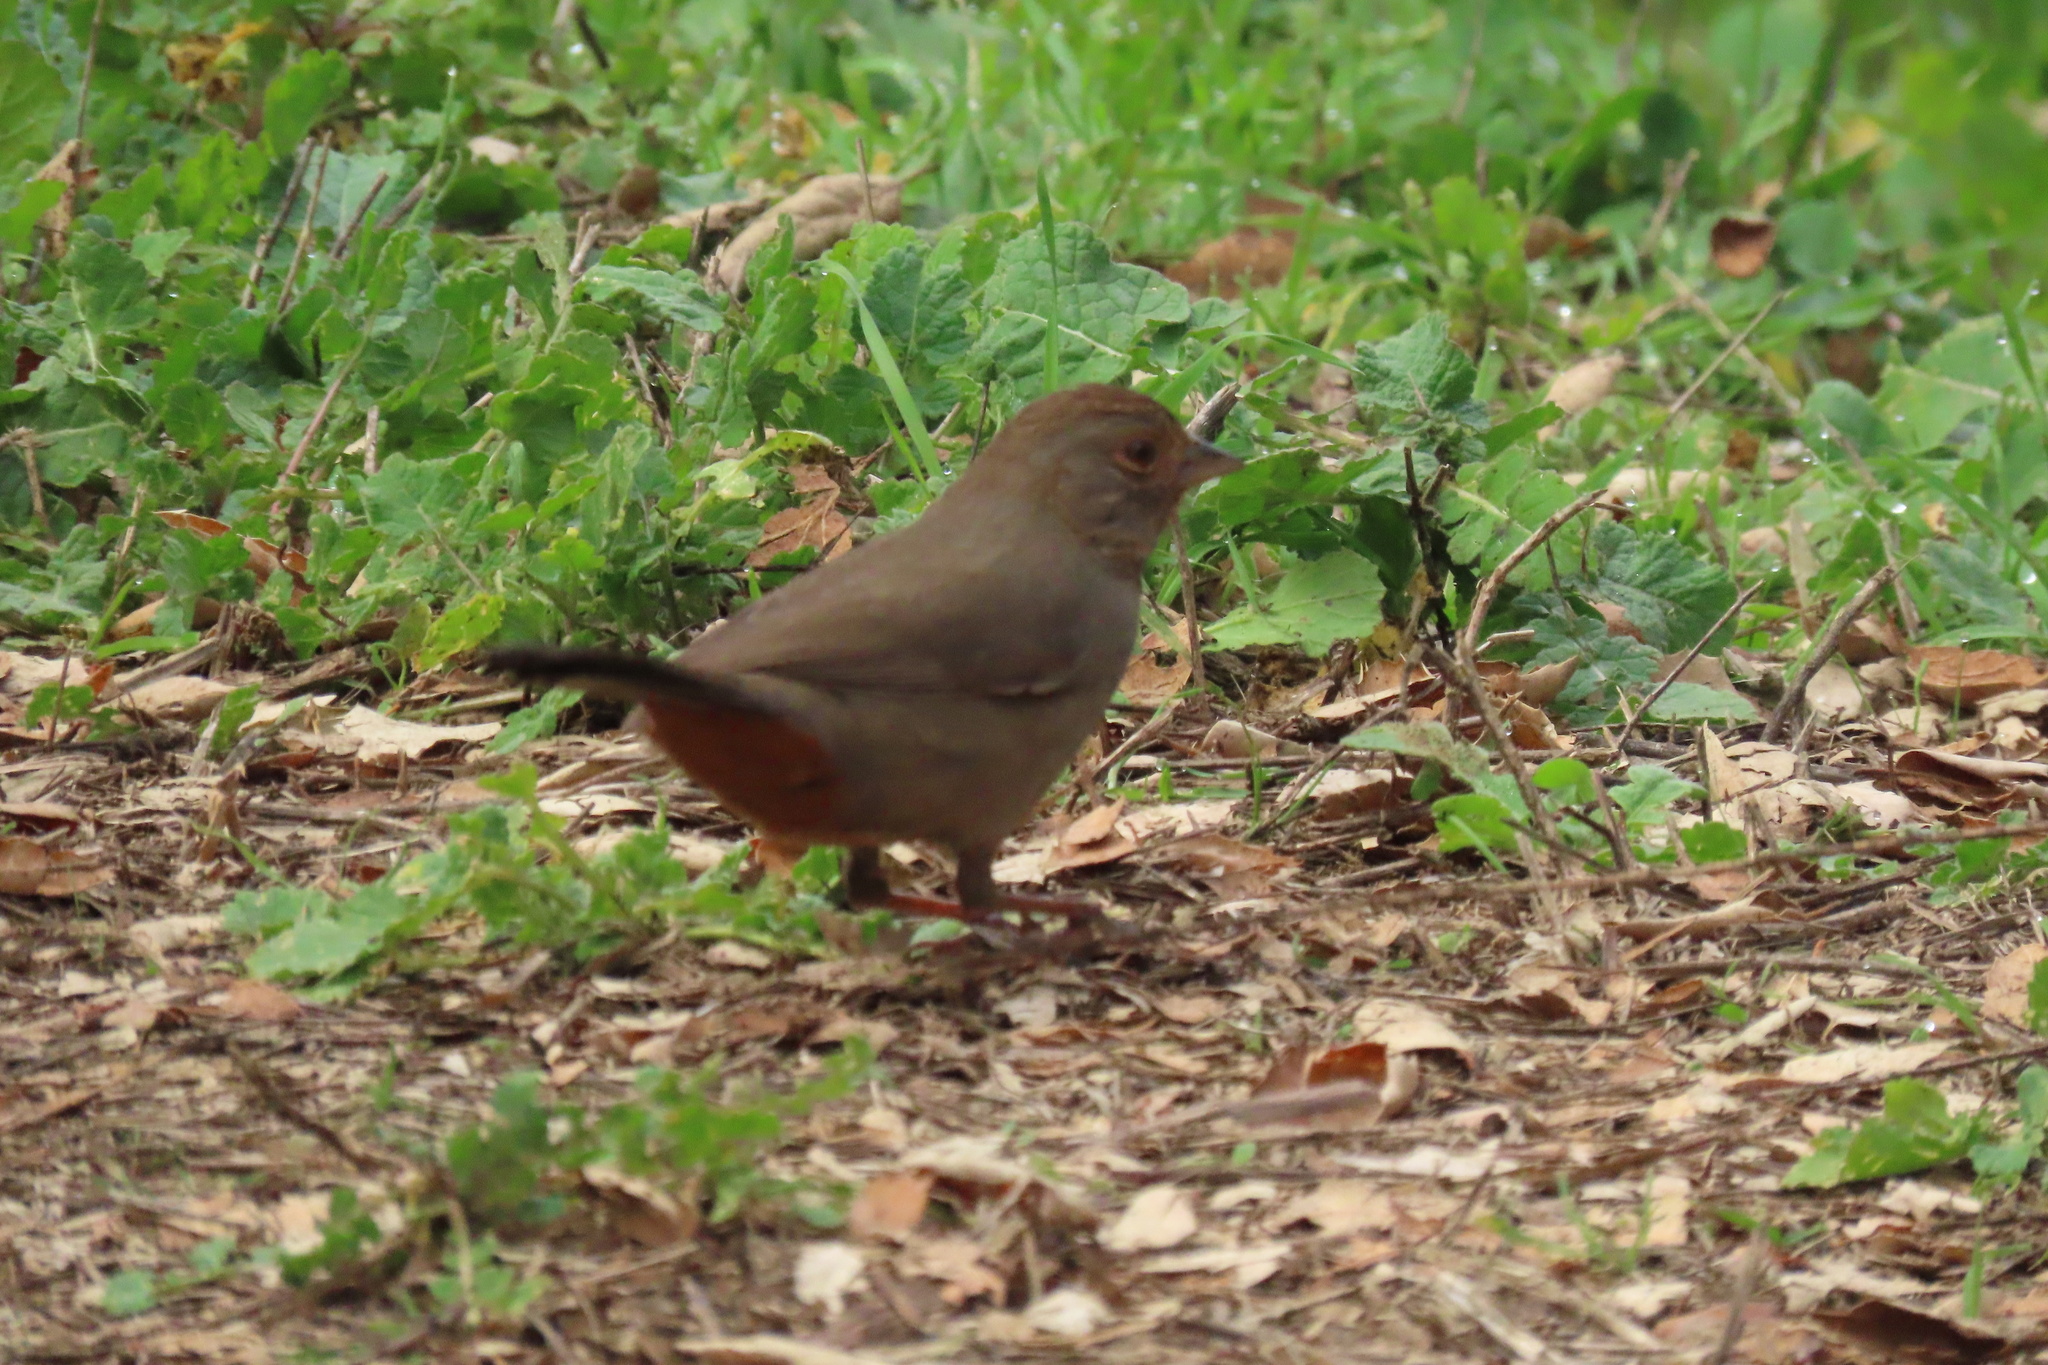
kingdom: Animalia
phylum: Chordata
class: Aves
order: Passeriformes
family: Passerellidae
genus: Melozone
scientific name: Melozone crissalis
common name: California towhee
